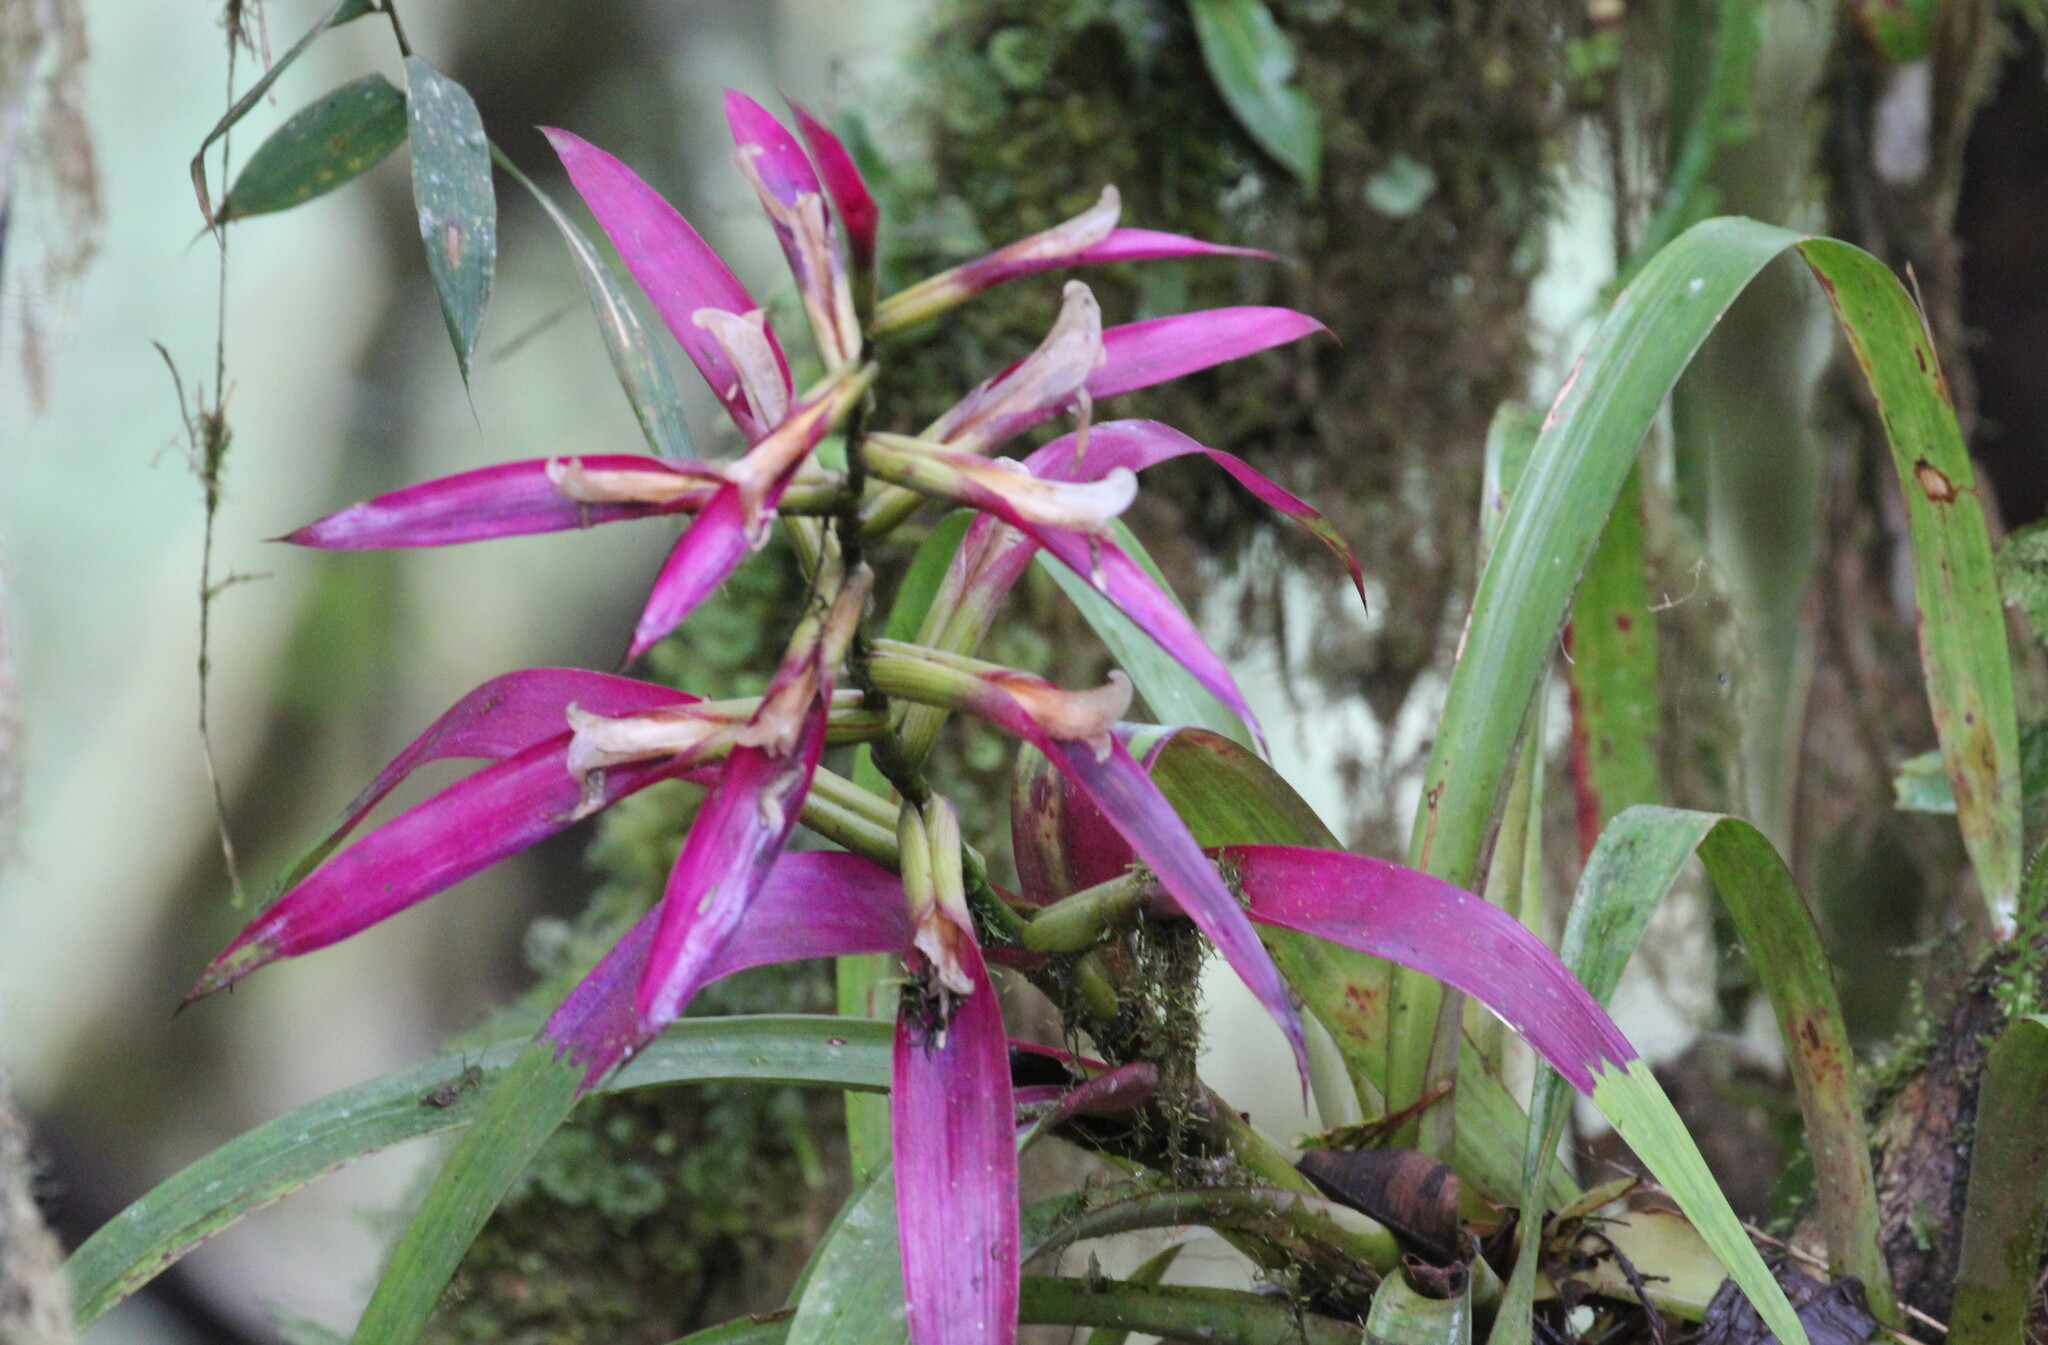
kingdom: Plantae
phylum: Tracheophyta
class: Liliopsida
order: Poales
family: Bromeliaceae
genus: Guzmania
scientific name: Guzmania wittmackii
